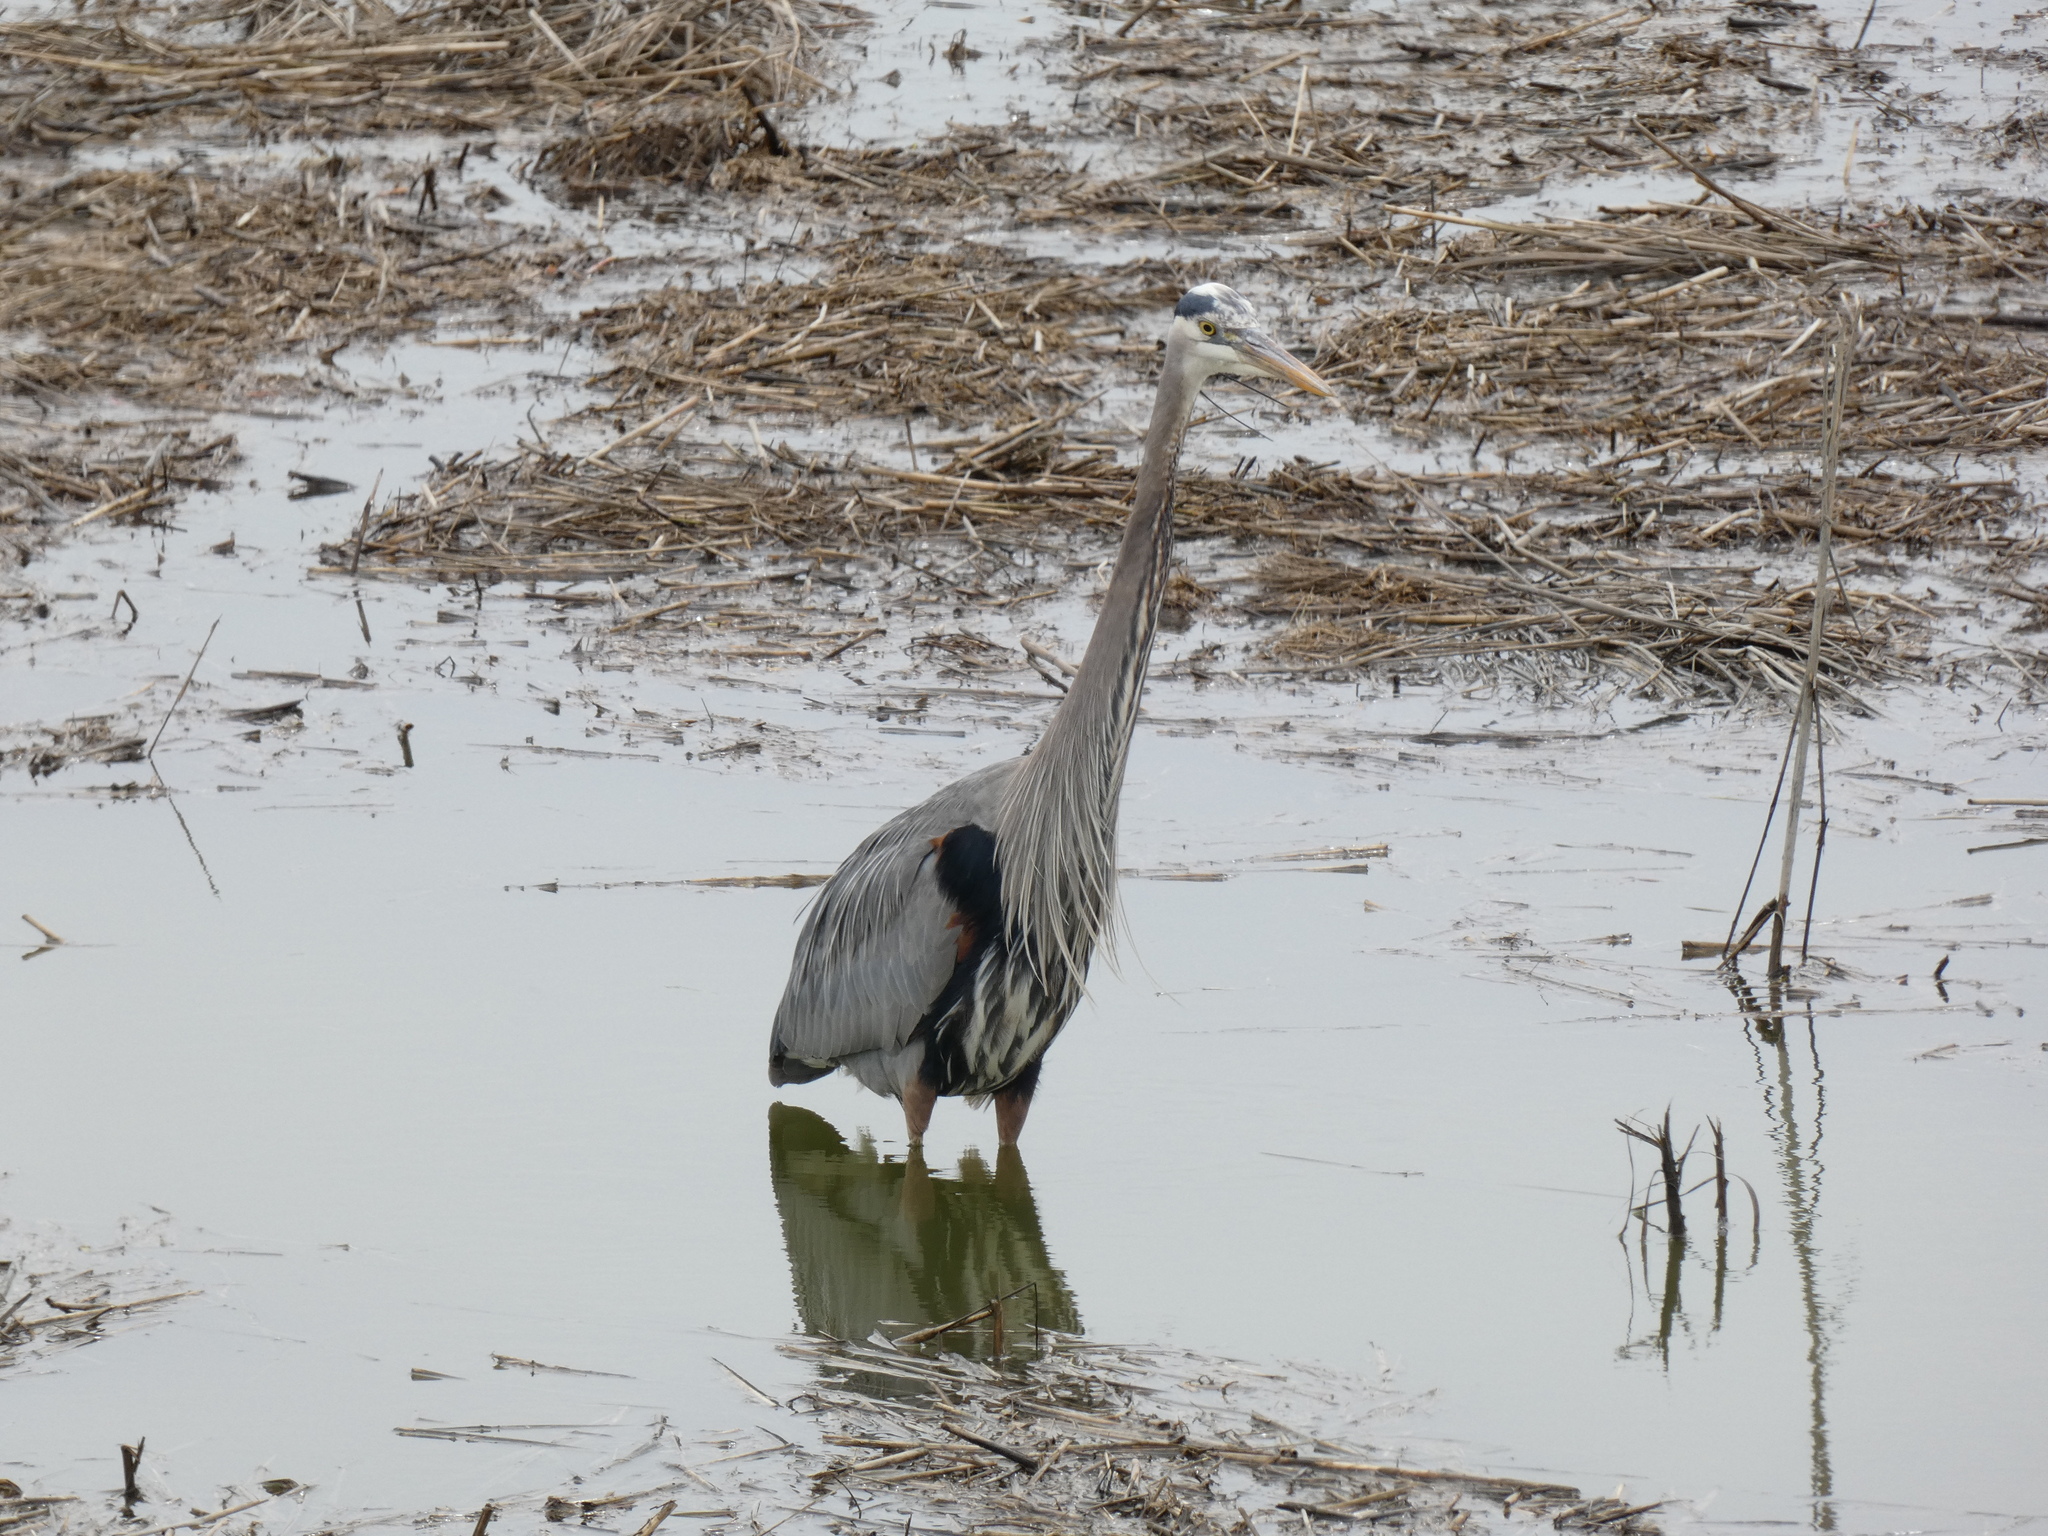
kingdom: Animalia
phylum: Chordata
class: Aves
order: Pelecaniformes
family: Ardeidae
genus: Ardea
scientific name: Ardea herodias
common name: Great blue heron
